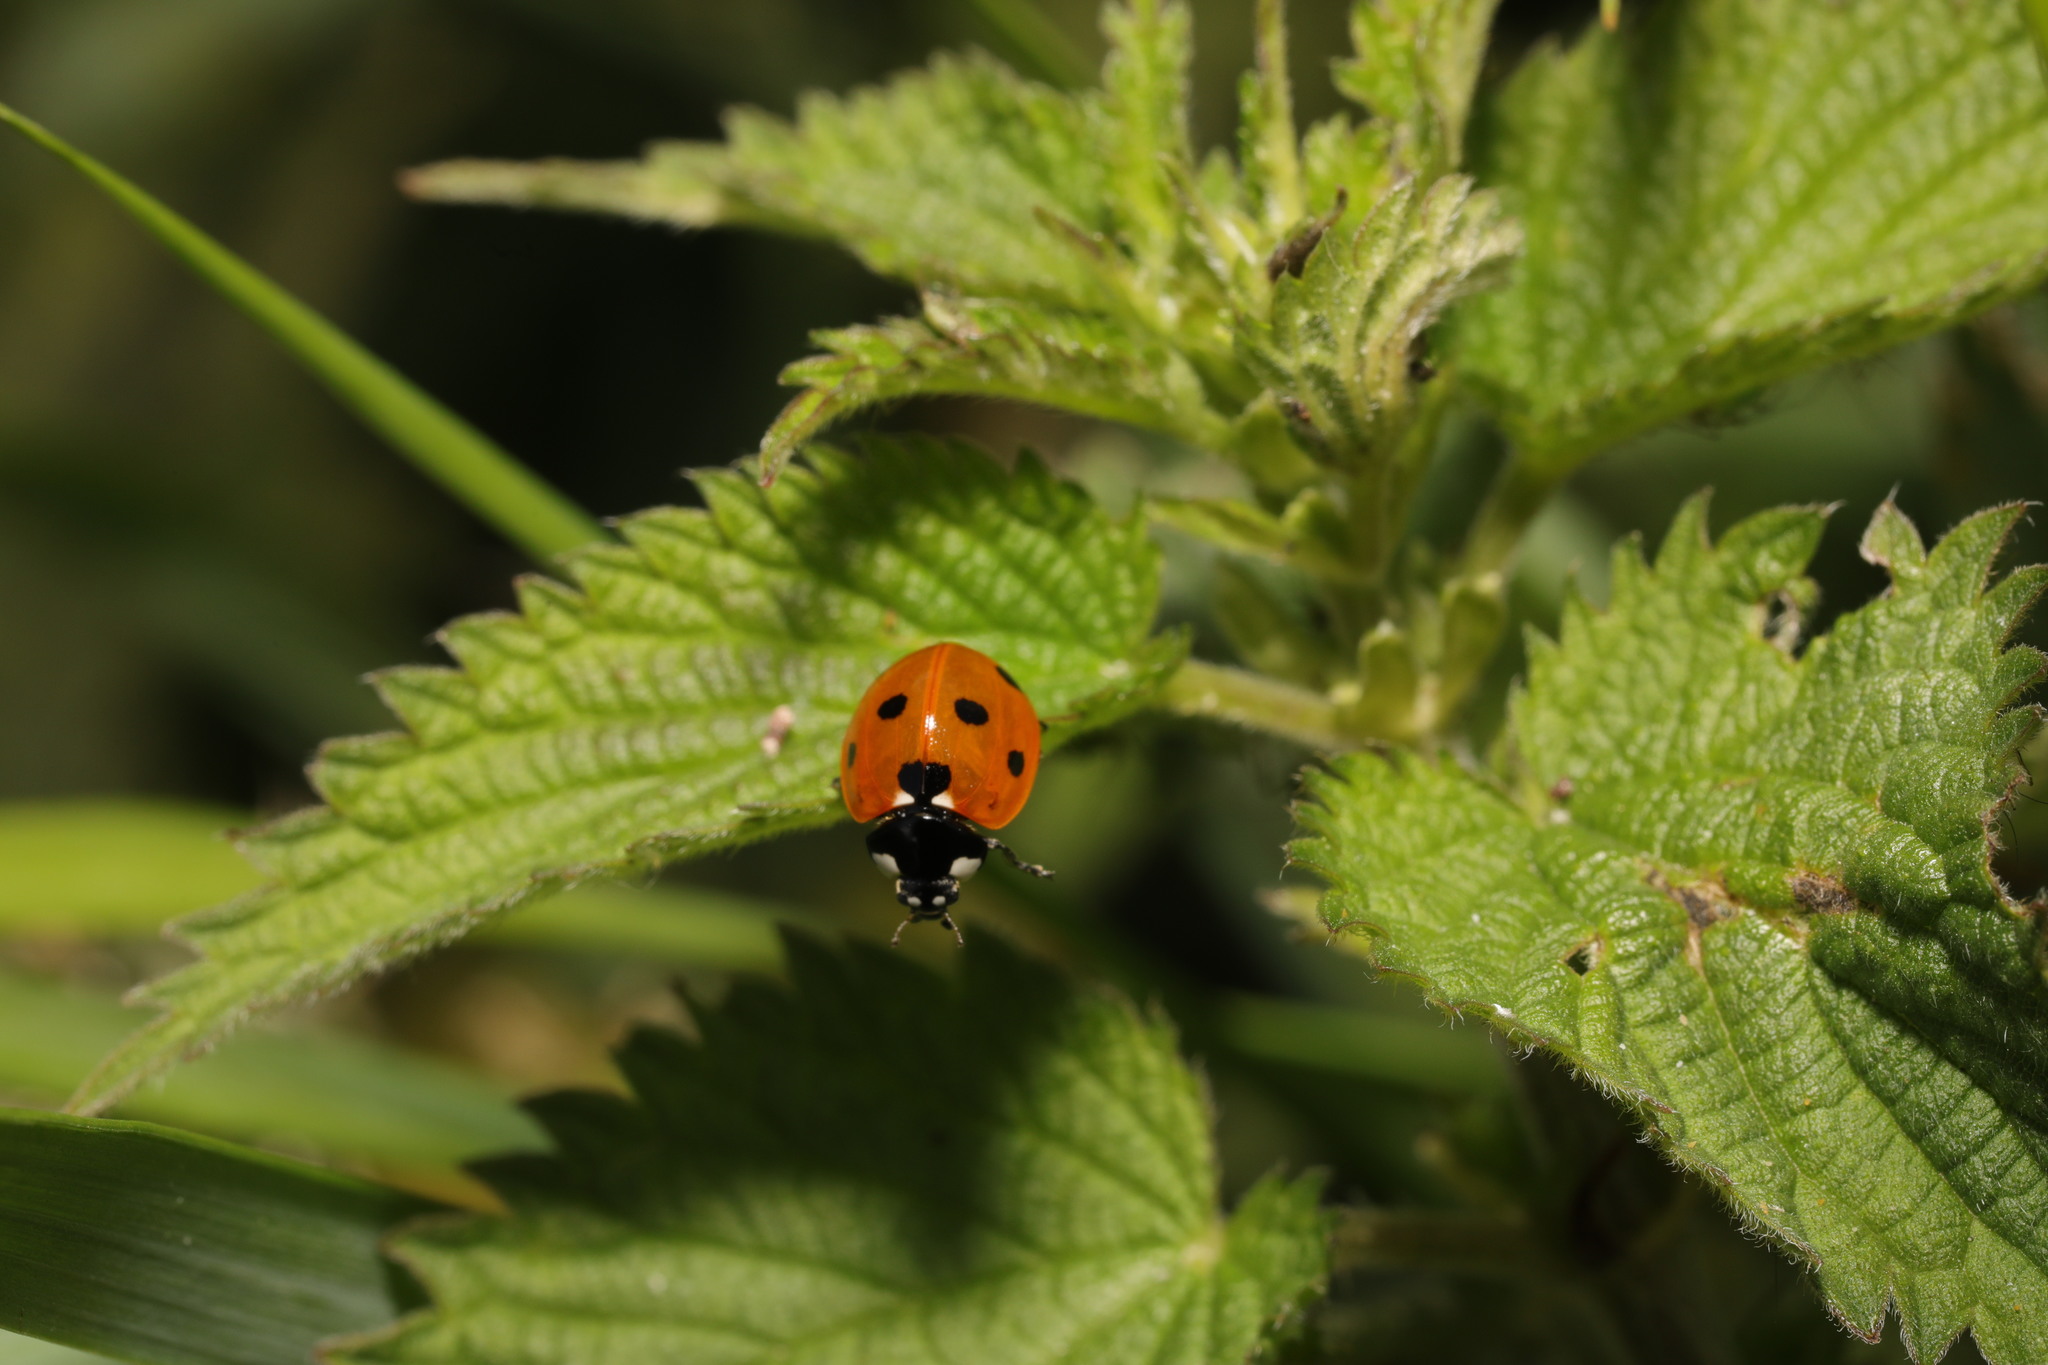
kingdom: Animalia
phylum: Arthropoda
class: Insecta
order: Coleoptera
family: Coccinellidae
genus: Coccinella
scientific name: Coccinella septempunctata
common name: Sevenspotted lady beetle
